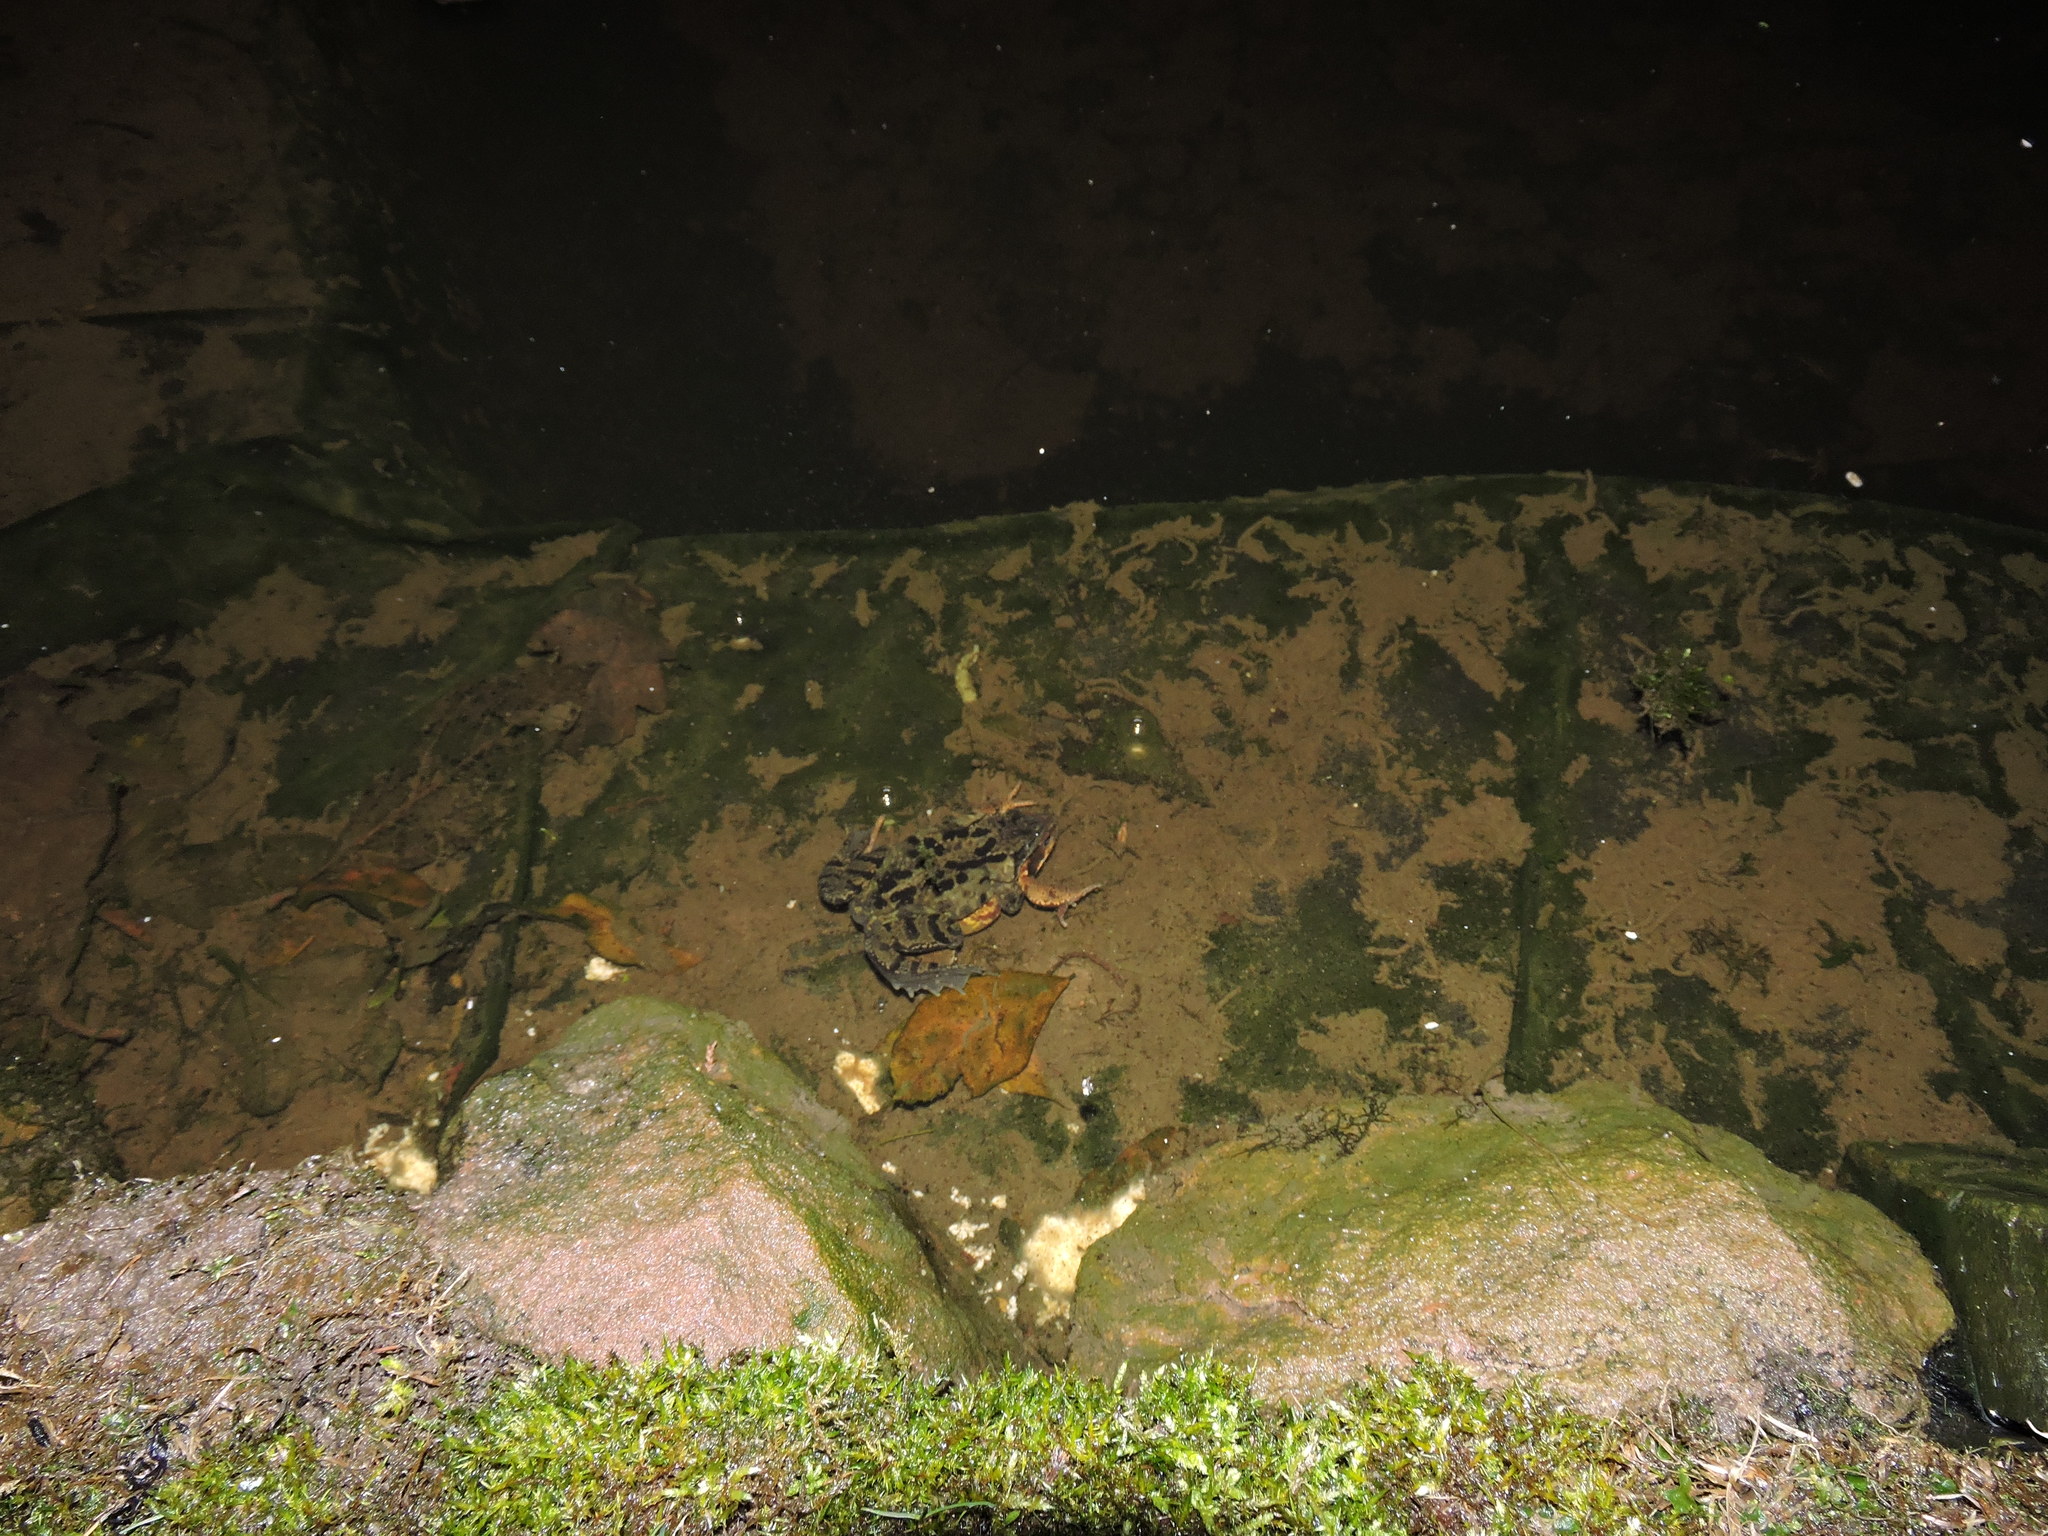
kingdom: Animalia
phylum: Chordata
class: Amphibia
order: Anura
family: Ranidae
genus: Rana
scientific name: Rana temporaria
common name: Common frog
